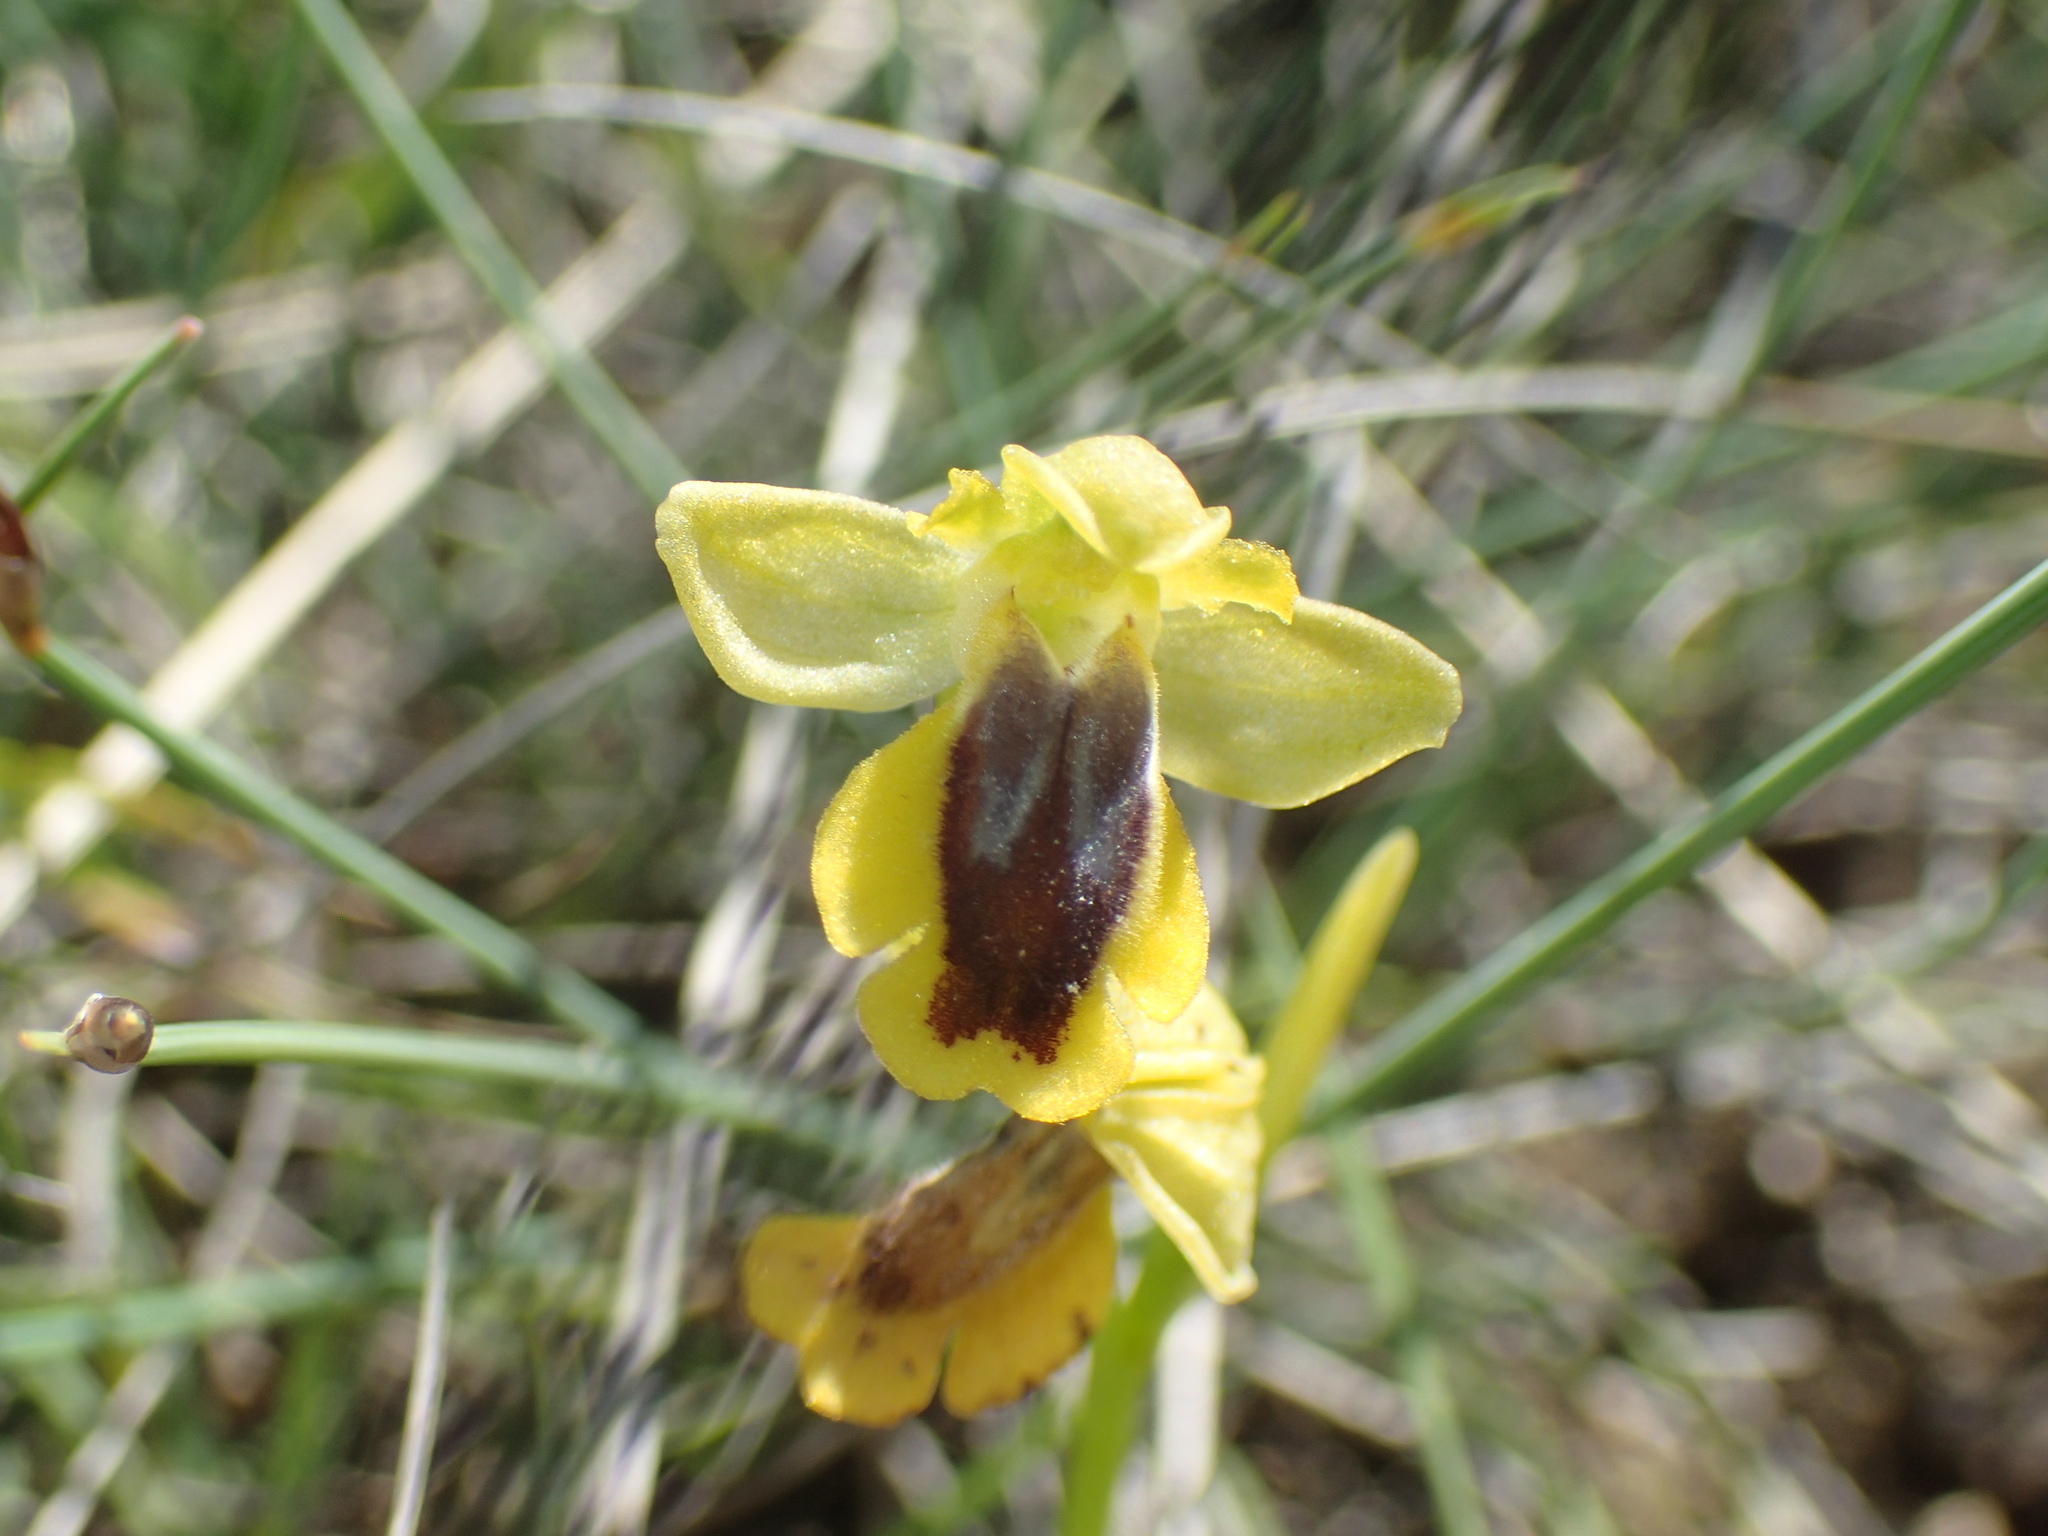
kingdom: Plantae
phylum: Tracheophyta
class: Liliopsida
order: Asparagales
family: Orchidaceae
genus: Ophrys
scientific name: Ophrys lutea
